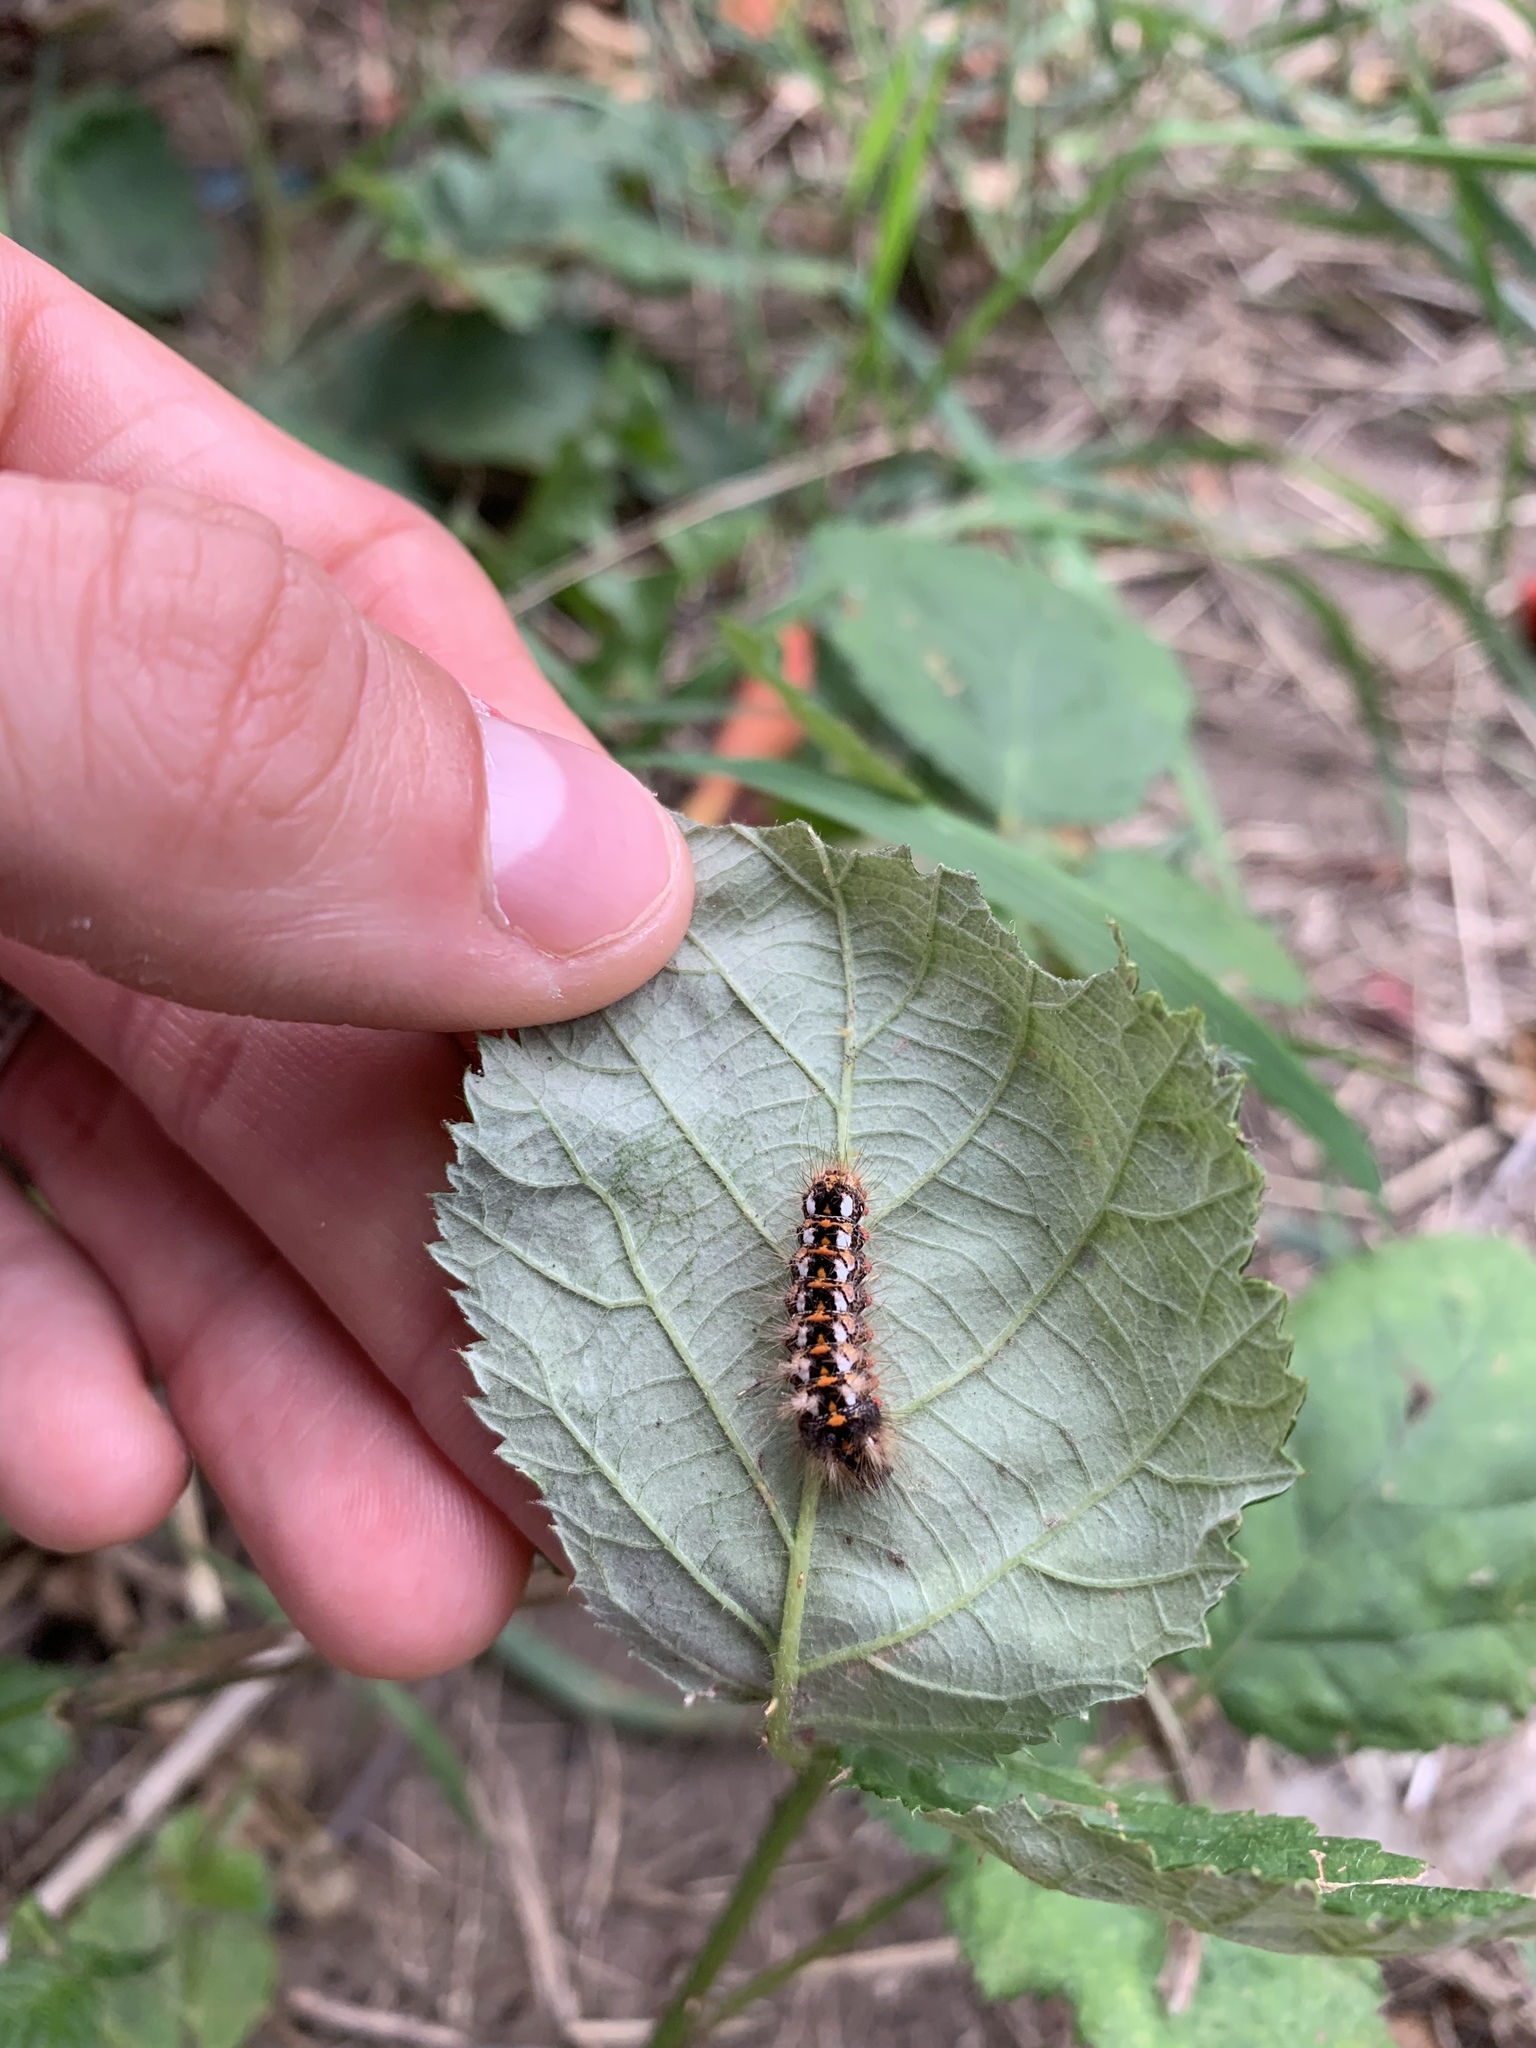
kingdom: Animalia
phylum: Arthropoda
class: Insecta
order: Lepidoptera
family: Noctuidae
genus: Acronicta
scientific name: Acronicta rumicis
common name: Knot grass
